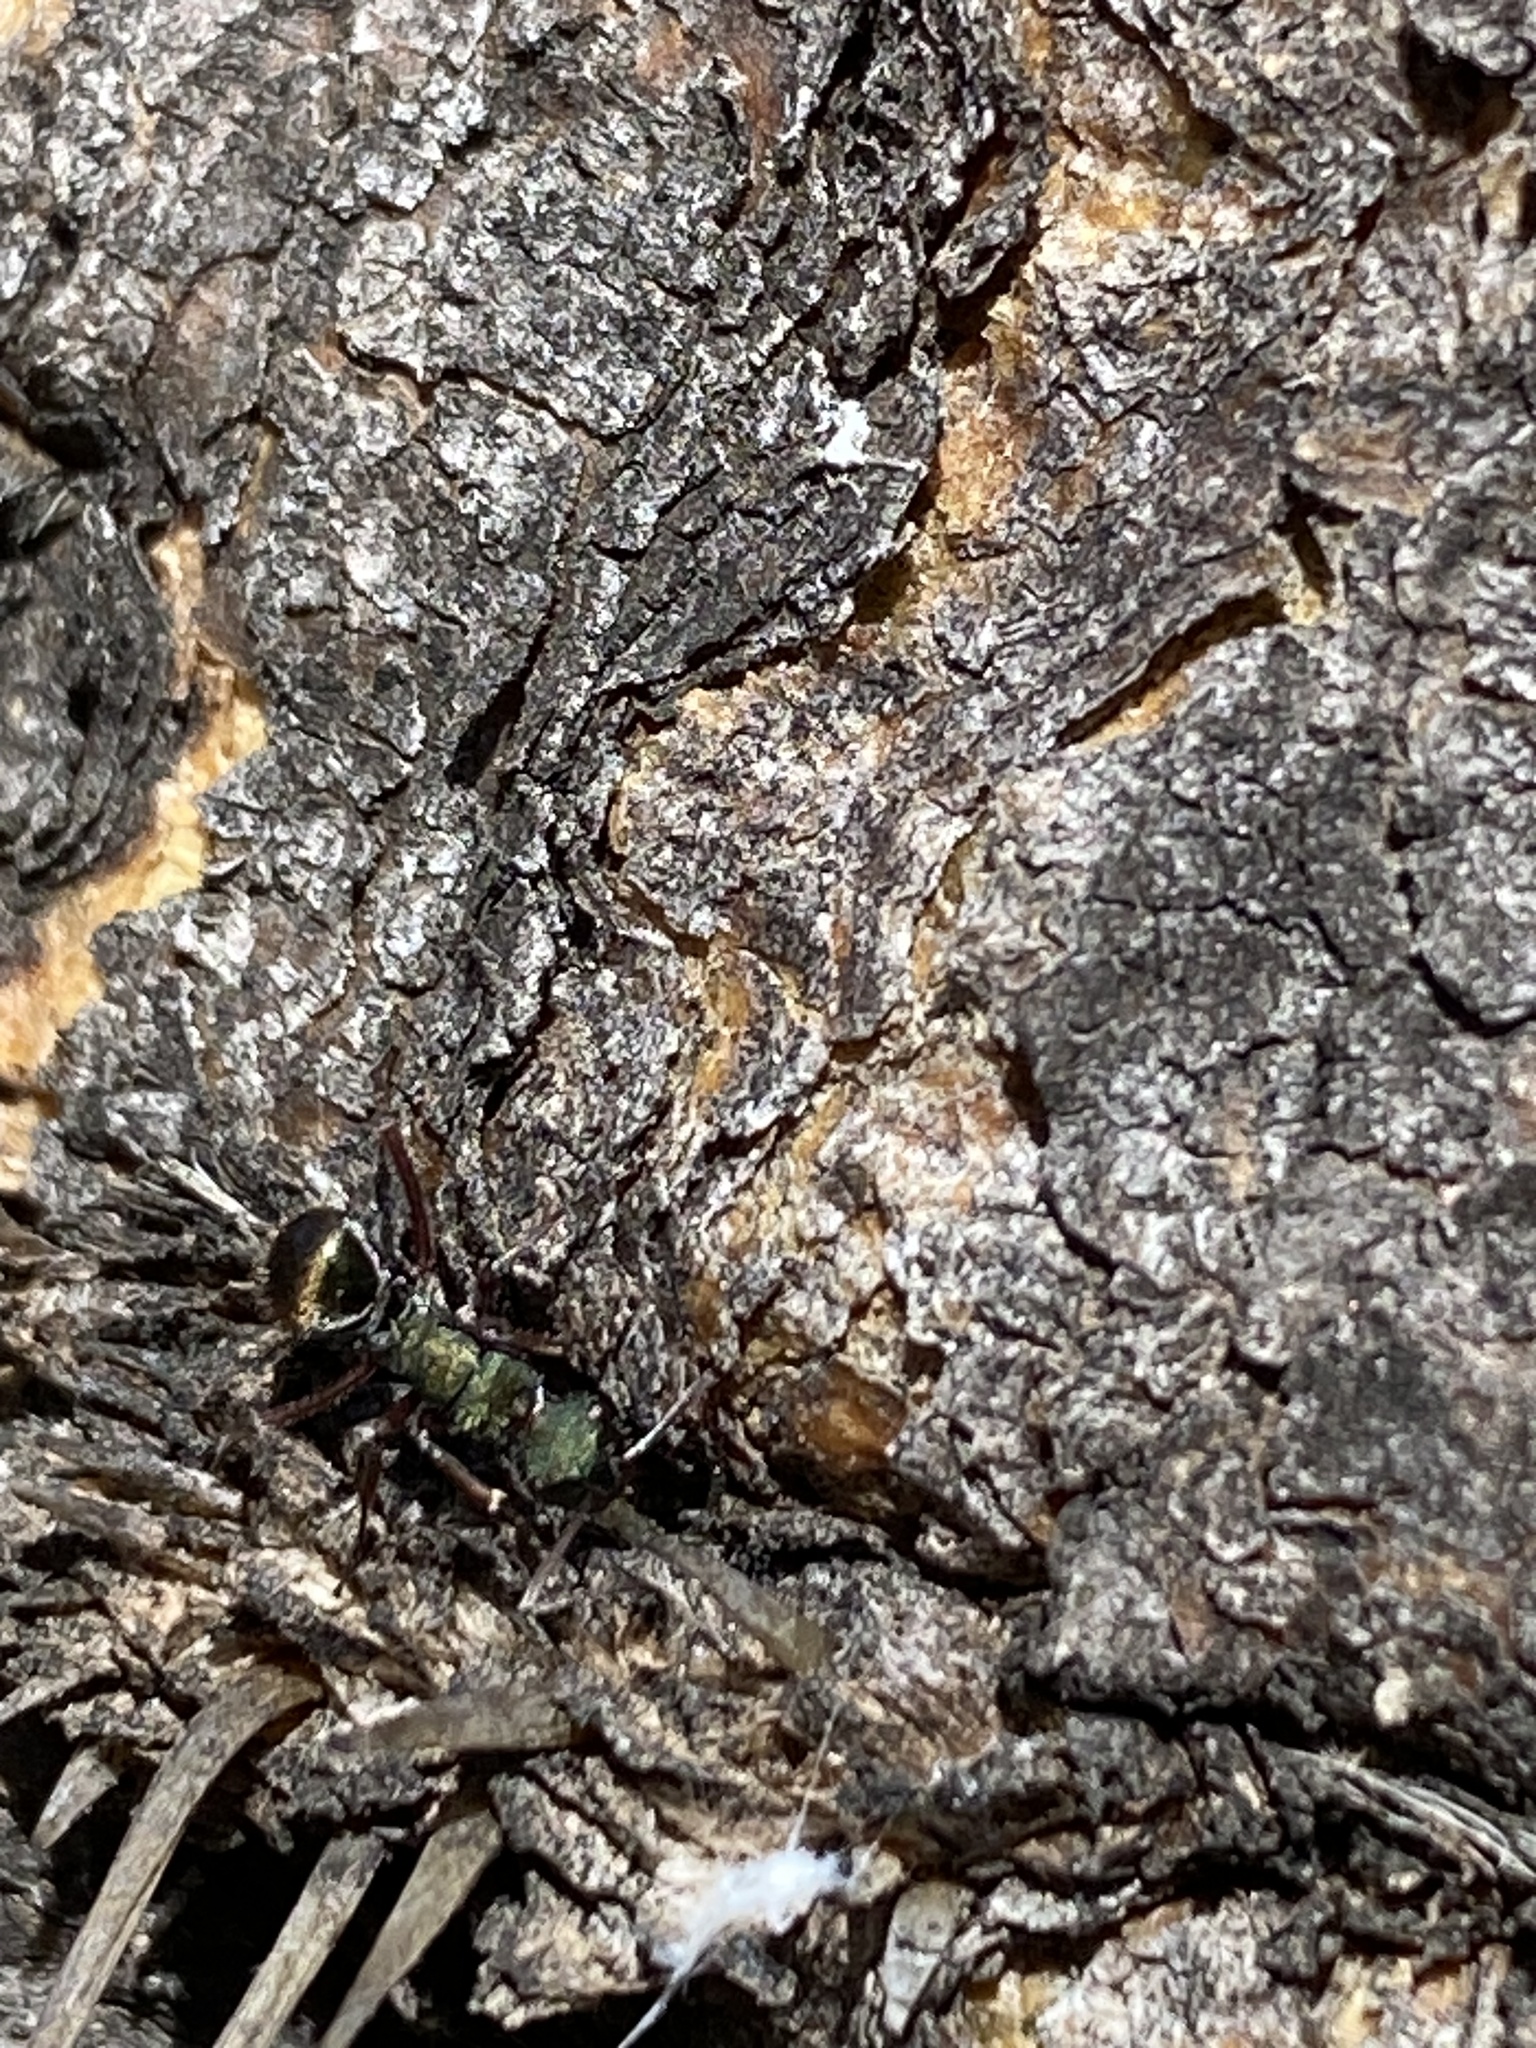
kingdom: Animalia
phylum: Arthropoda
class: Insecta
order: Hymenoptera
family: Formicidae
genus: Polyrhachis
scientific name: Polyrhachis hookeri
